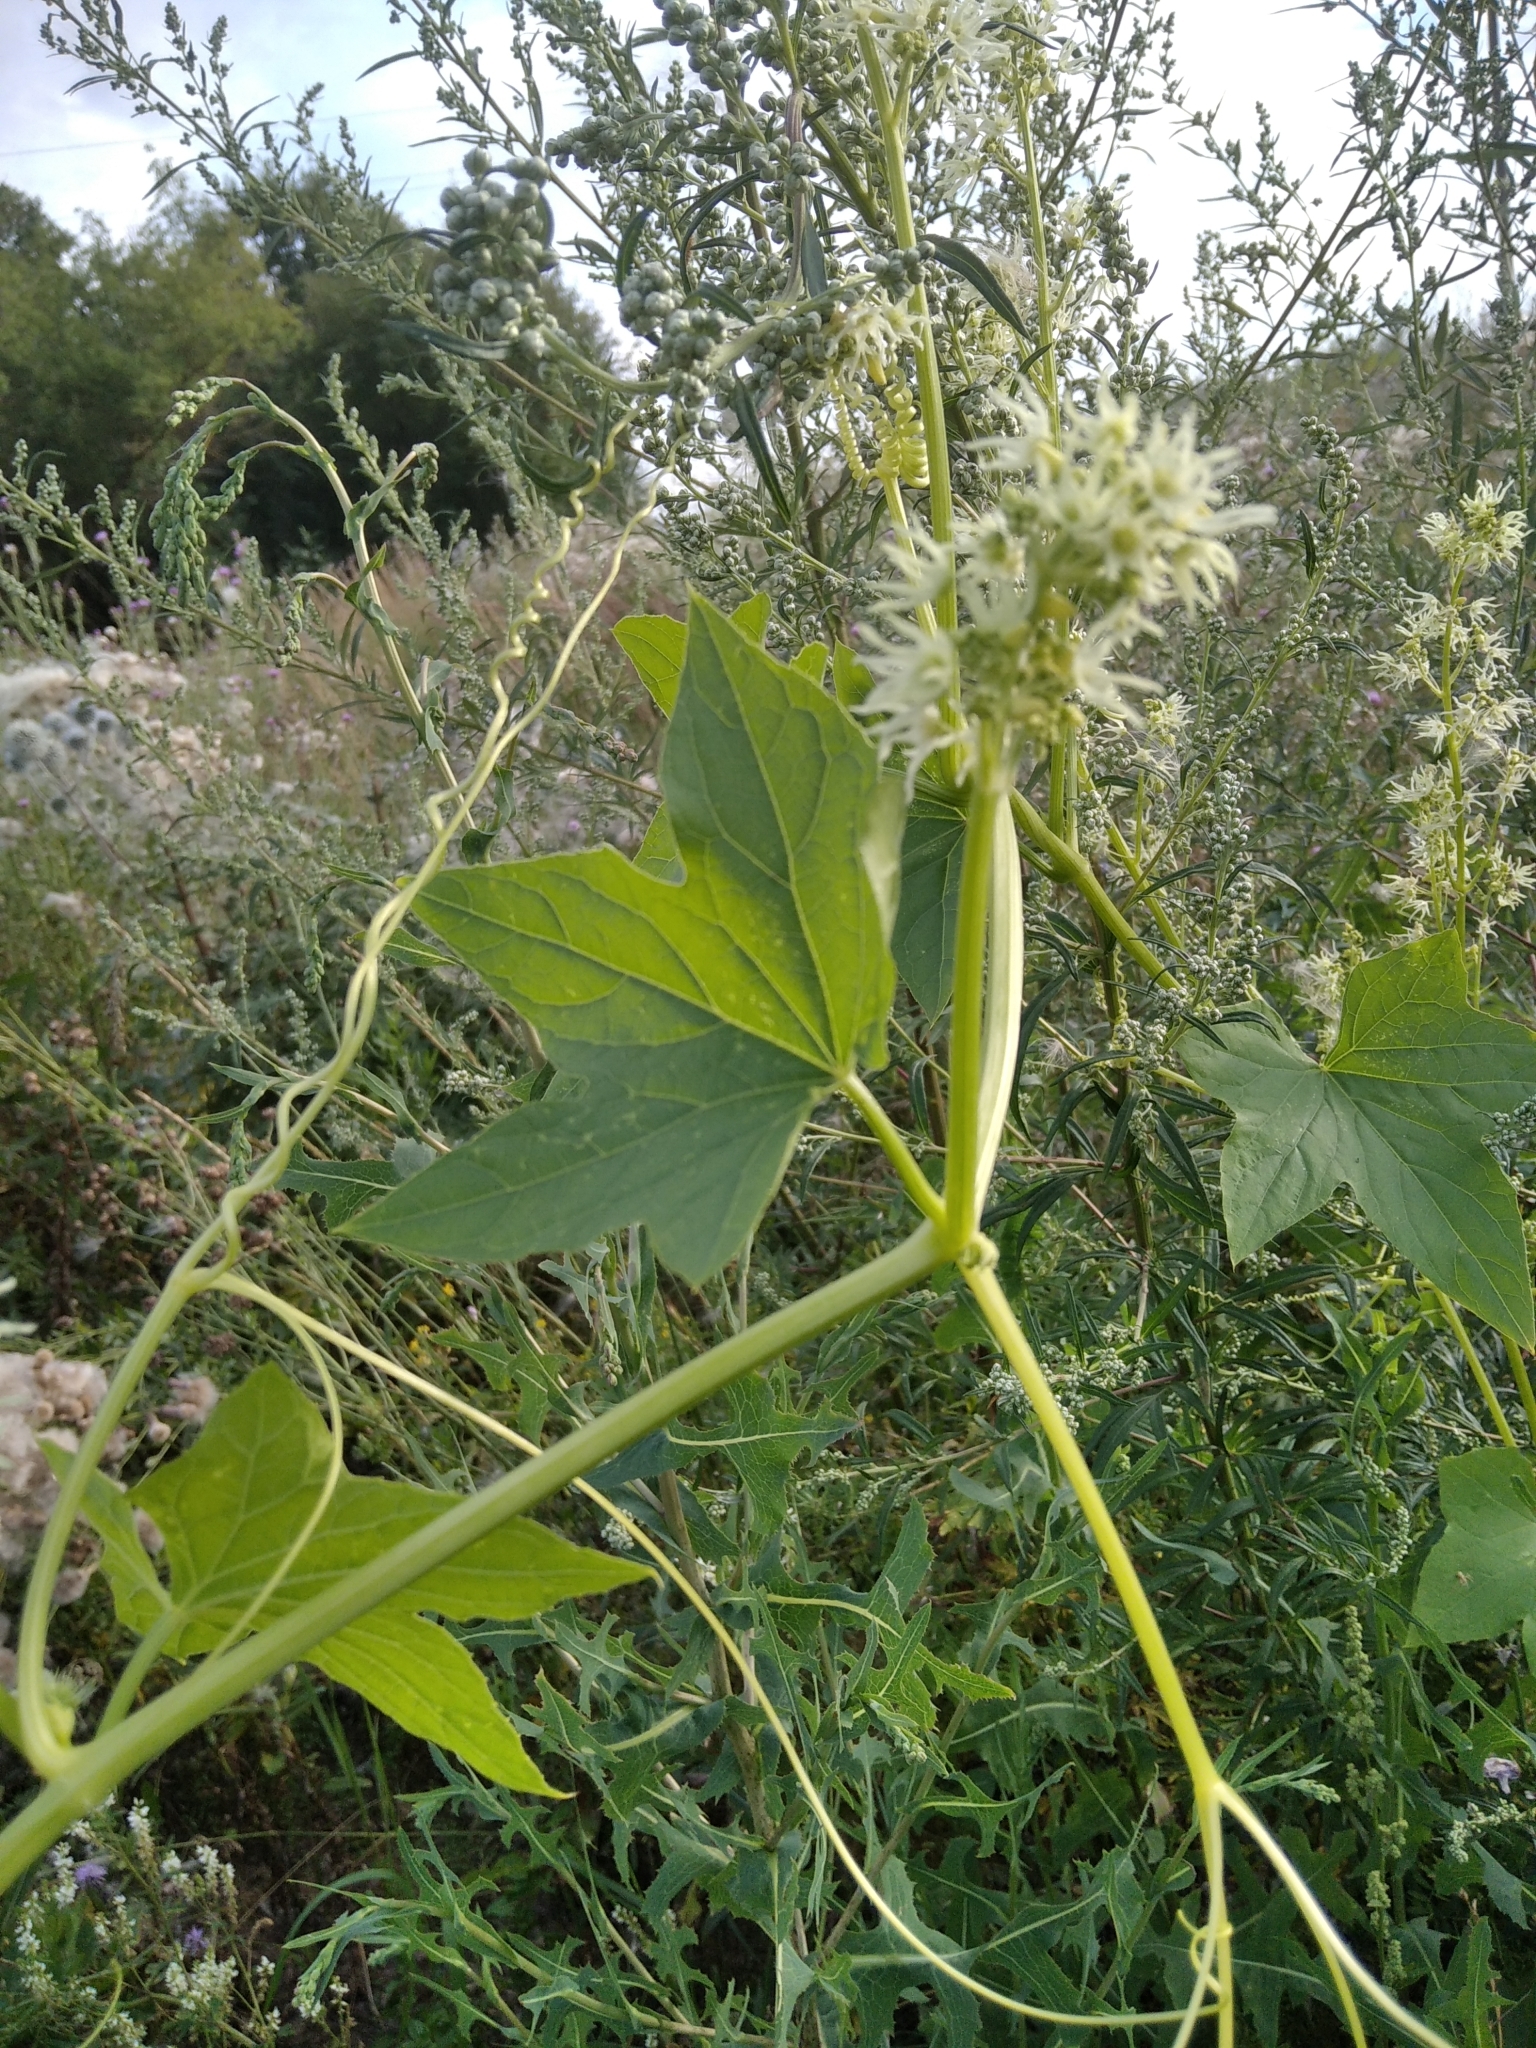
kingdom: Plantae
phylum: Tracheophyta
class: Magnoliopsida
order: Cucurbitales
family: Cucurbitaceae
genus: Echinocystis
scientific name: Echinocystis lobata
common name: Wild cucumber
